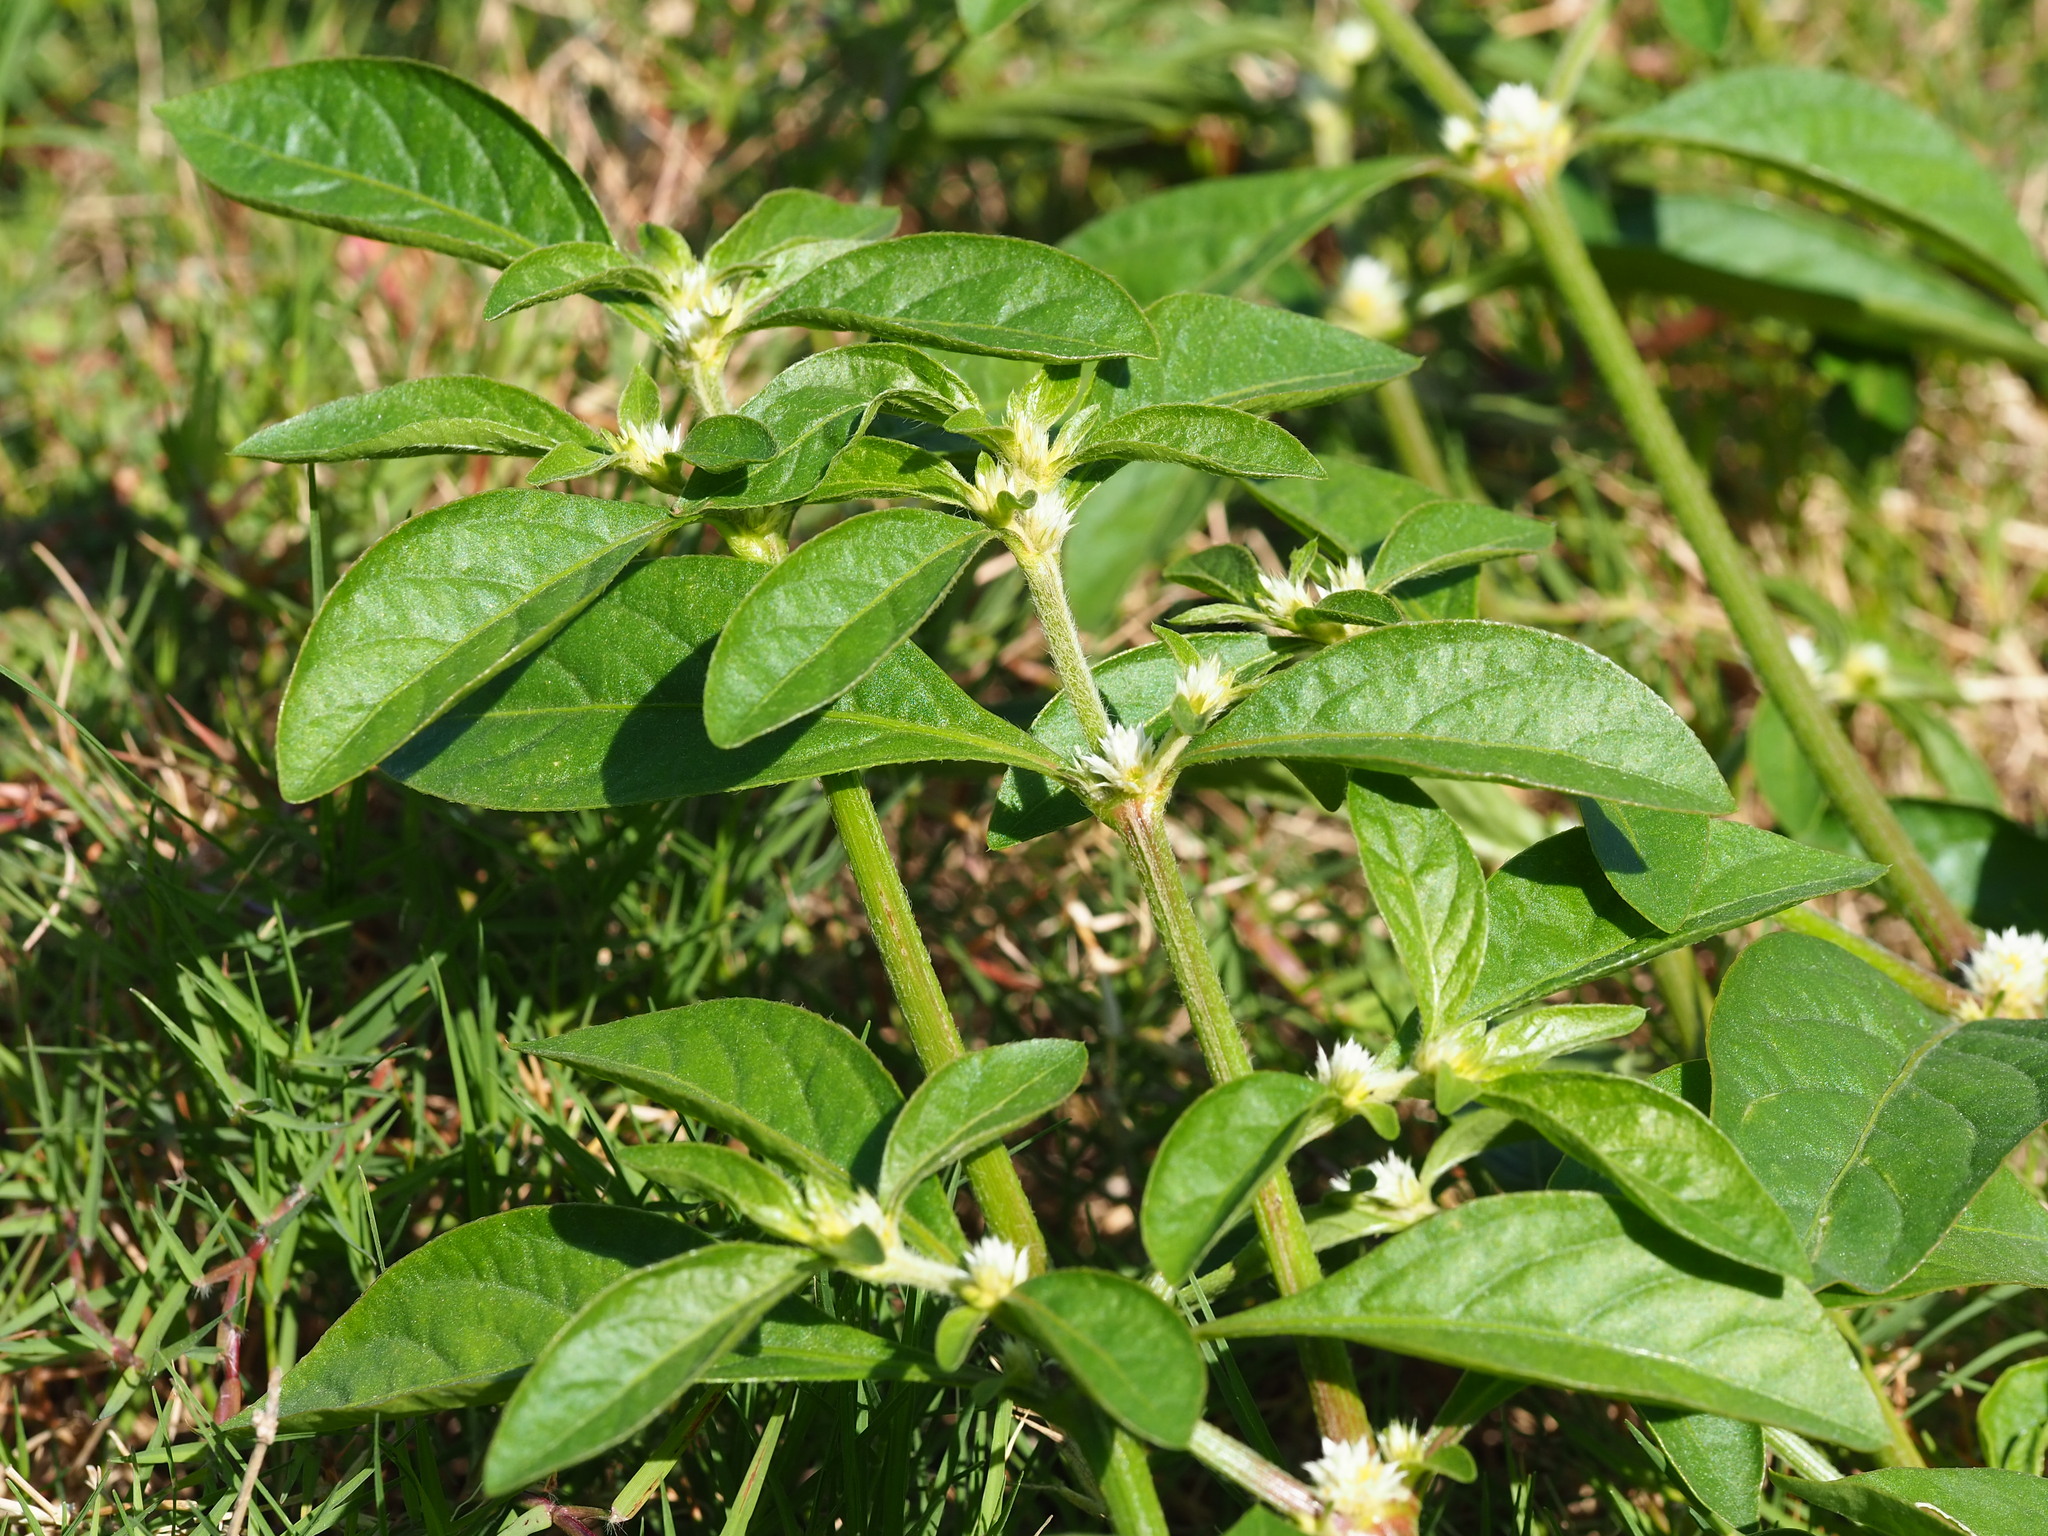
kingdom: Plantae
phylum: Tracheophyta
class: Magnoliopsida
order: Caryophyllales
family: Amaranthaceae
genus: Alternanthera
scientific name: Alternanthera ficoidea
